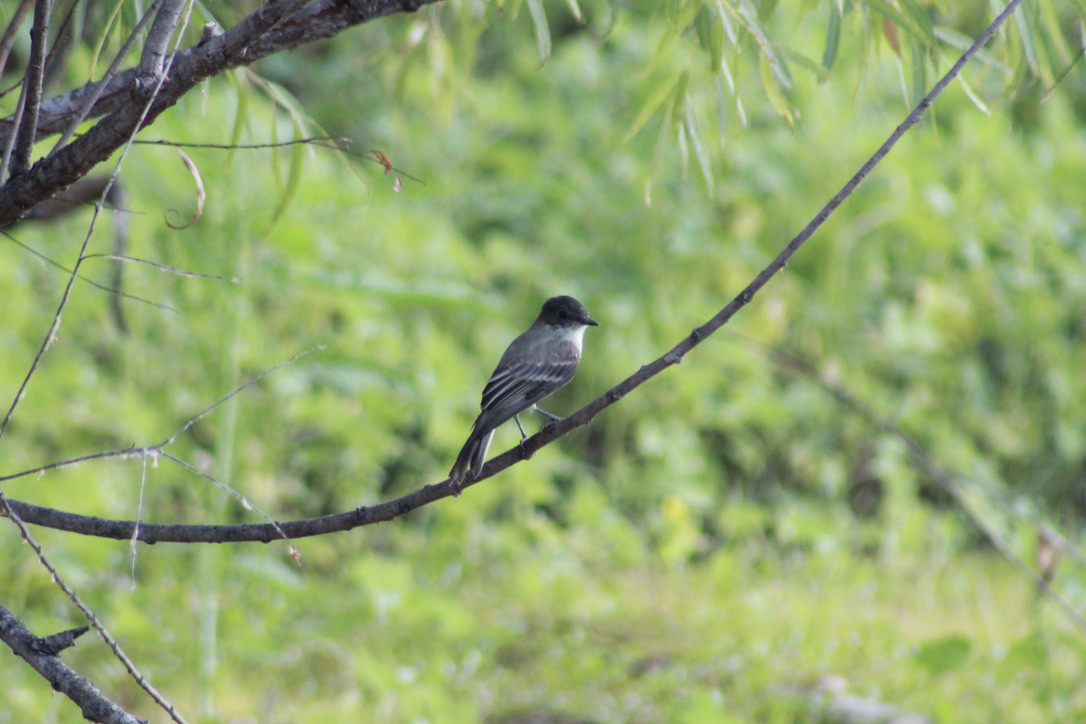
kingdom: Animalia
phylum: Chordata
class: Aves
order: Passeriformes
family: Tyrannidae
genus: Sayornis
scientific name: Sayornis phoebe
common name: Eastern phoebe
